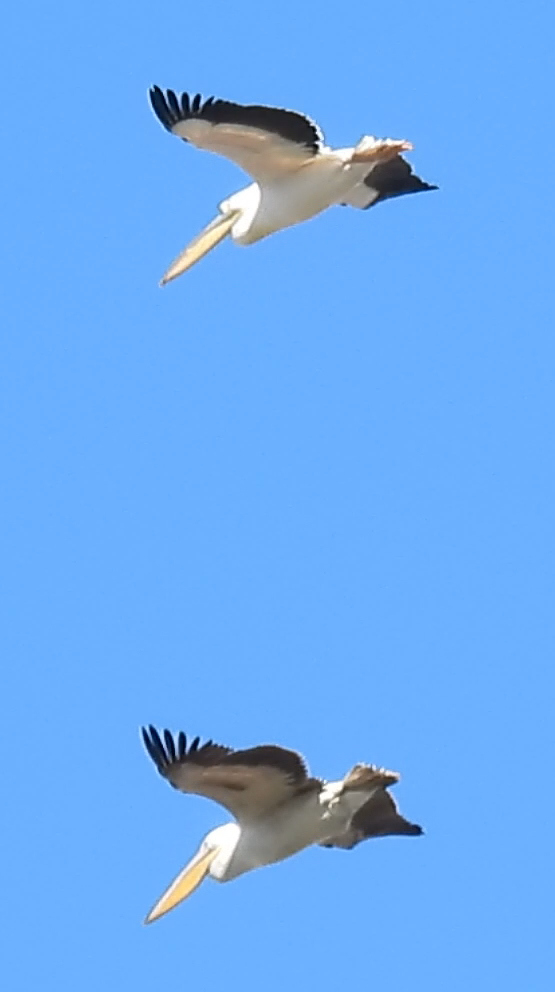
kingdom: Animalia
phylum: Chordata
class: Aves
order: Pelecaniformes
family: Pelecanidae
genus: Pelecanus
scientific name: Pelecanus onocrotalus
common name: Great white pelican
